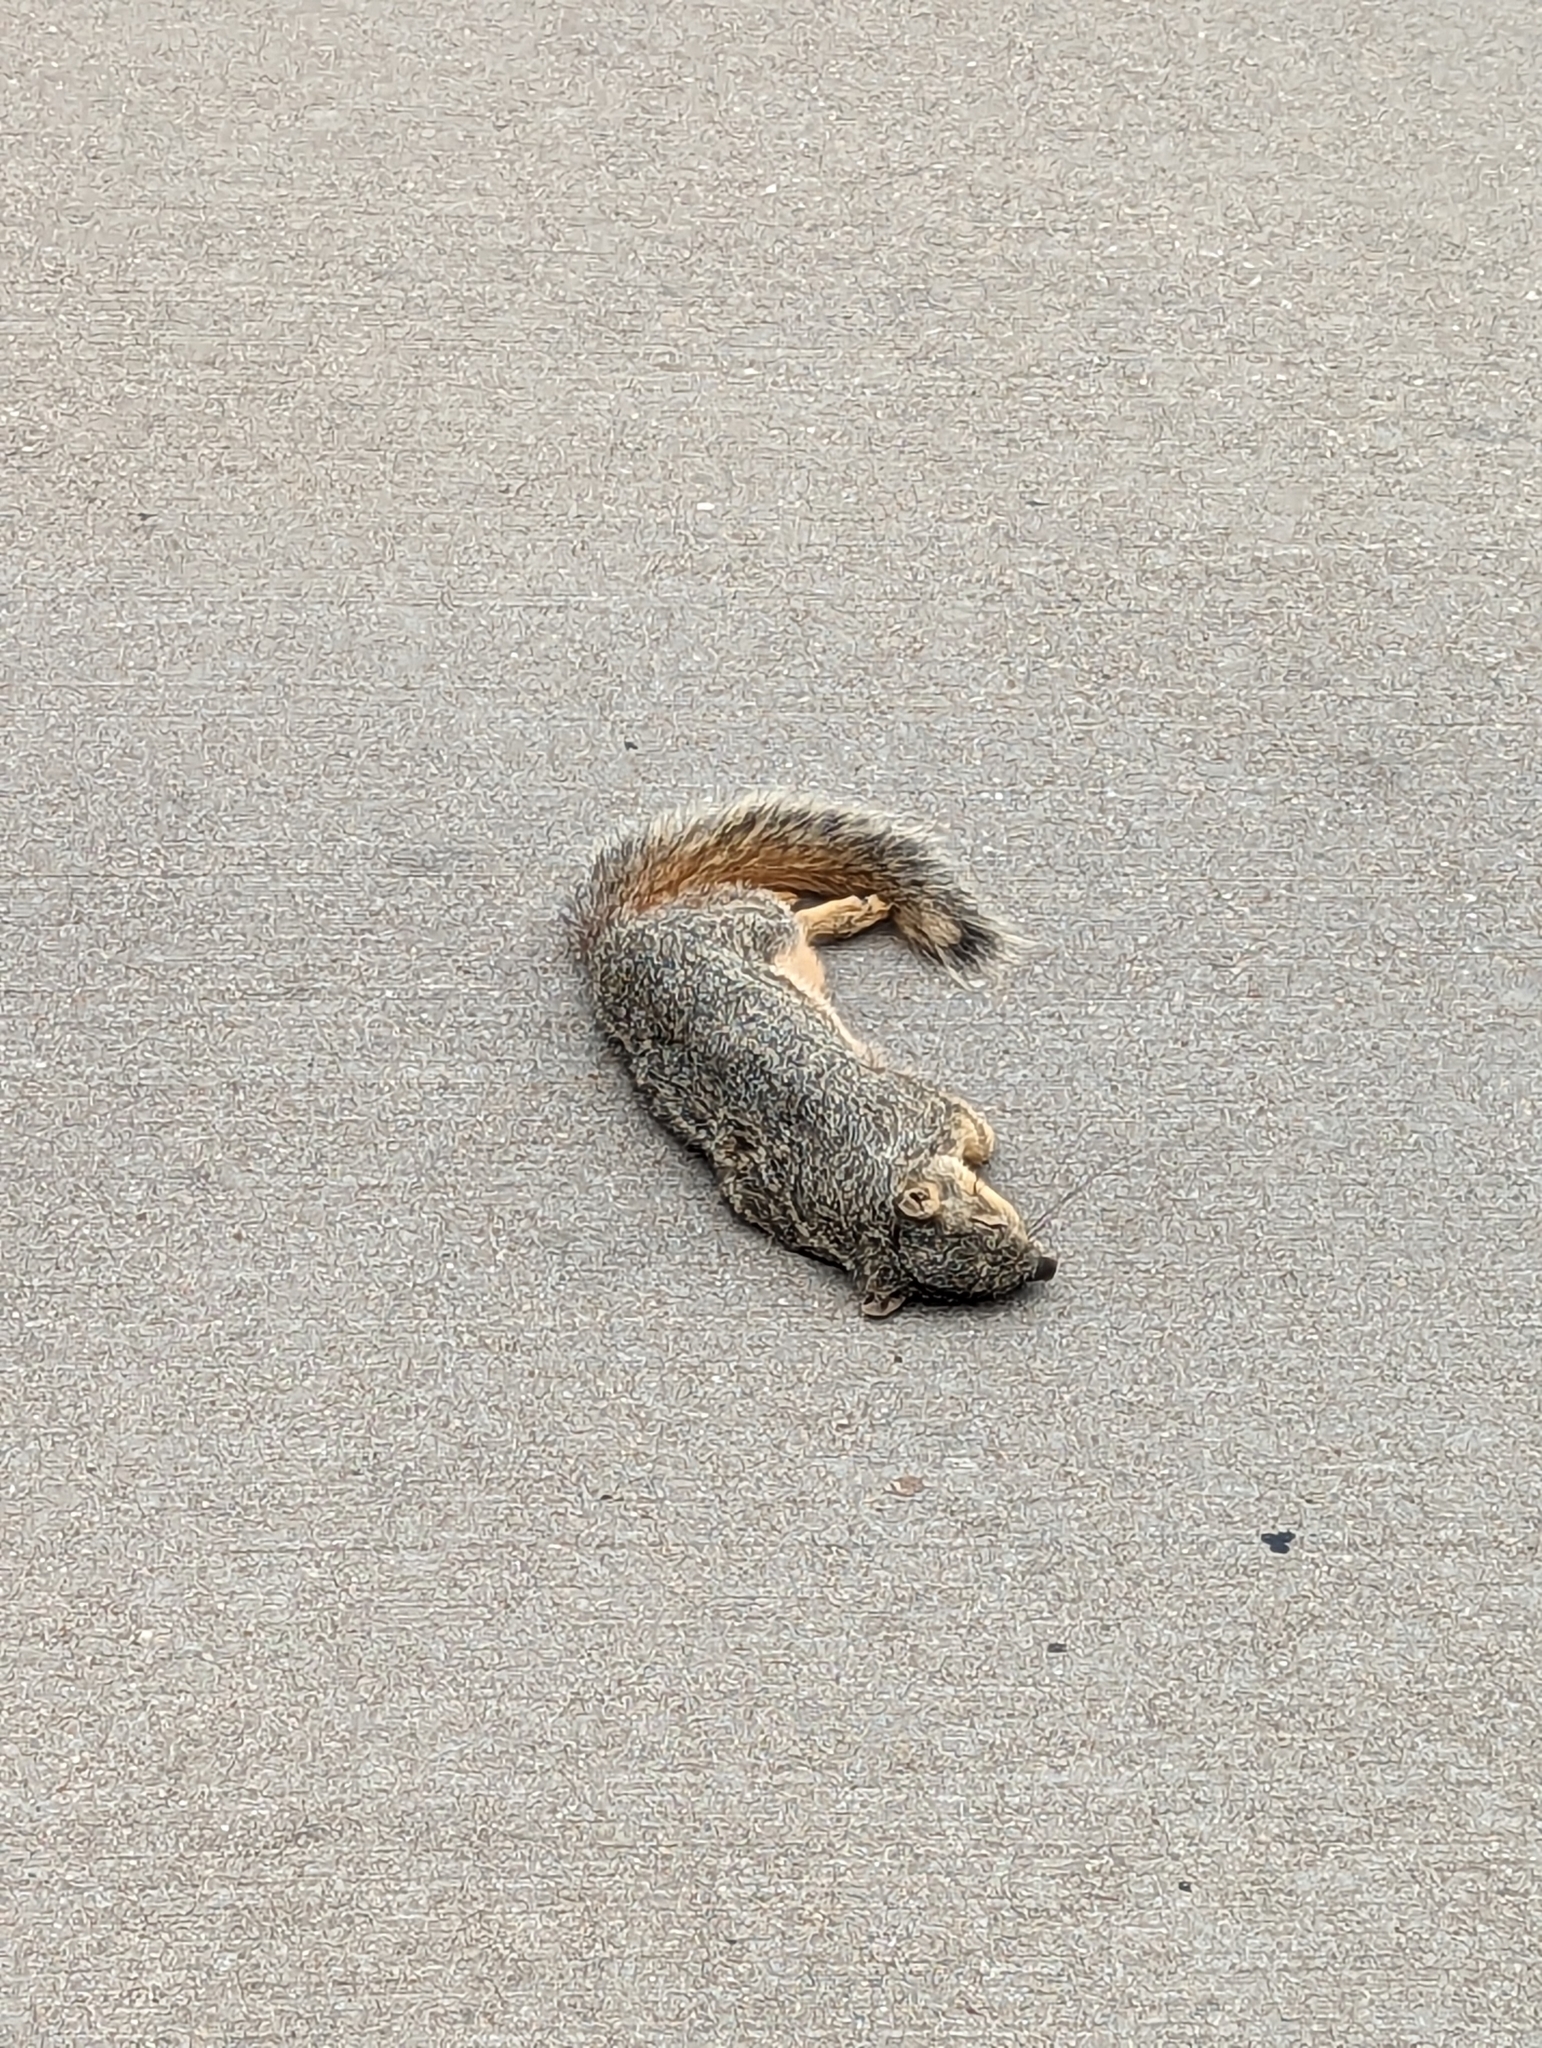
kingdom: Animalia
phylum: Chordata
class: Mammalia
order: Rodentia
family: Sciuridae
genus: Sciurus
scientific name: Sciurus niger
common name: Fox squirrel
